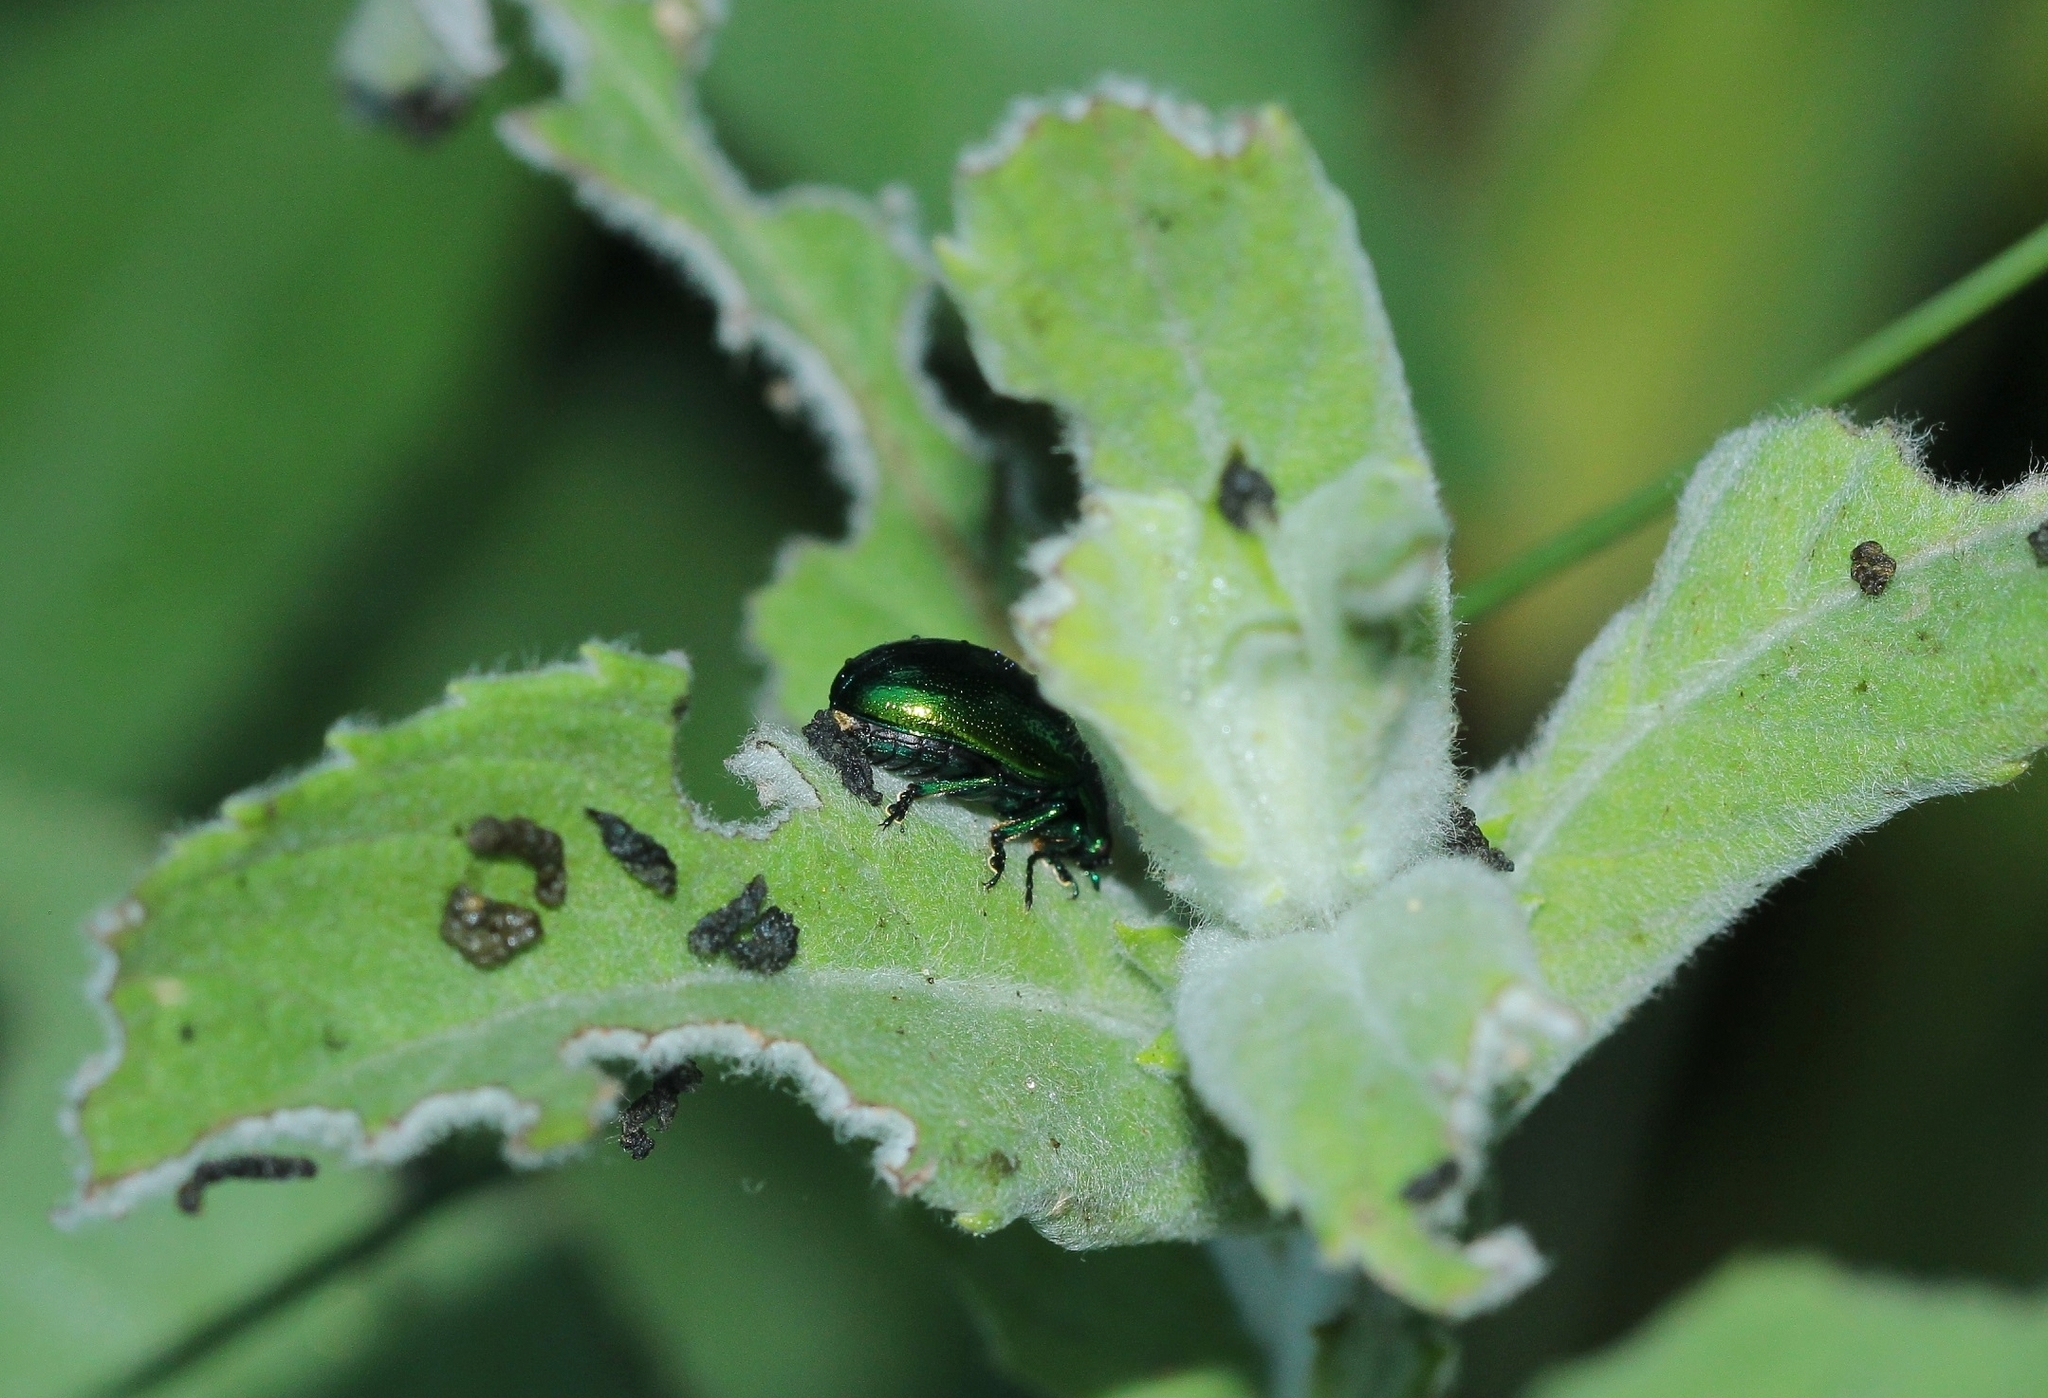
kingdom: Animalia
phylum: Arthropoda
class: Insecta
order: Coleoptera
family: Chrysomelidae
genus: Chrysolina
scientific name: Chrysolina herbacea
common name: Mint leaf beatle
